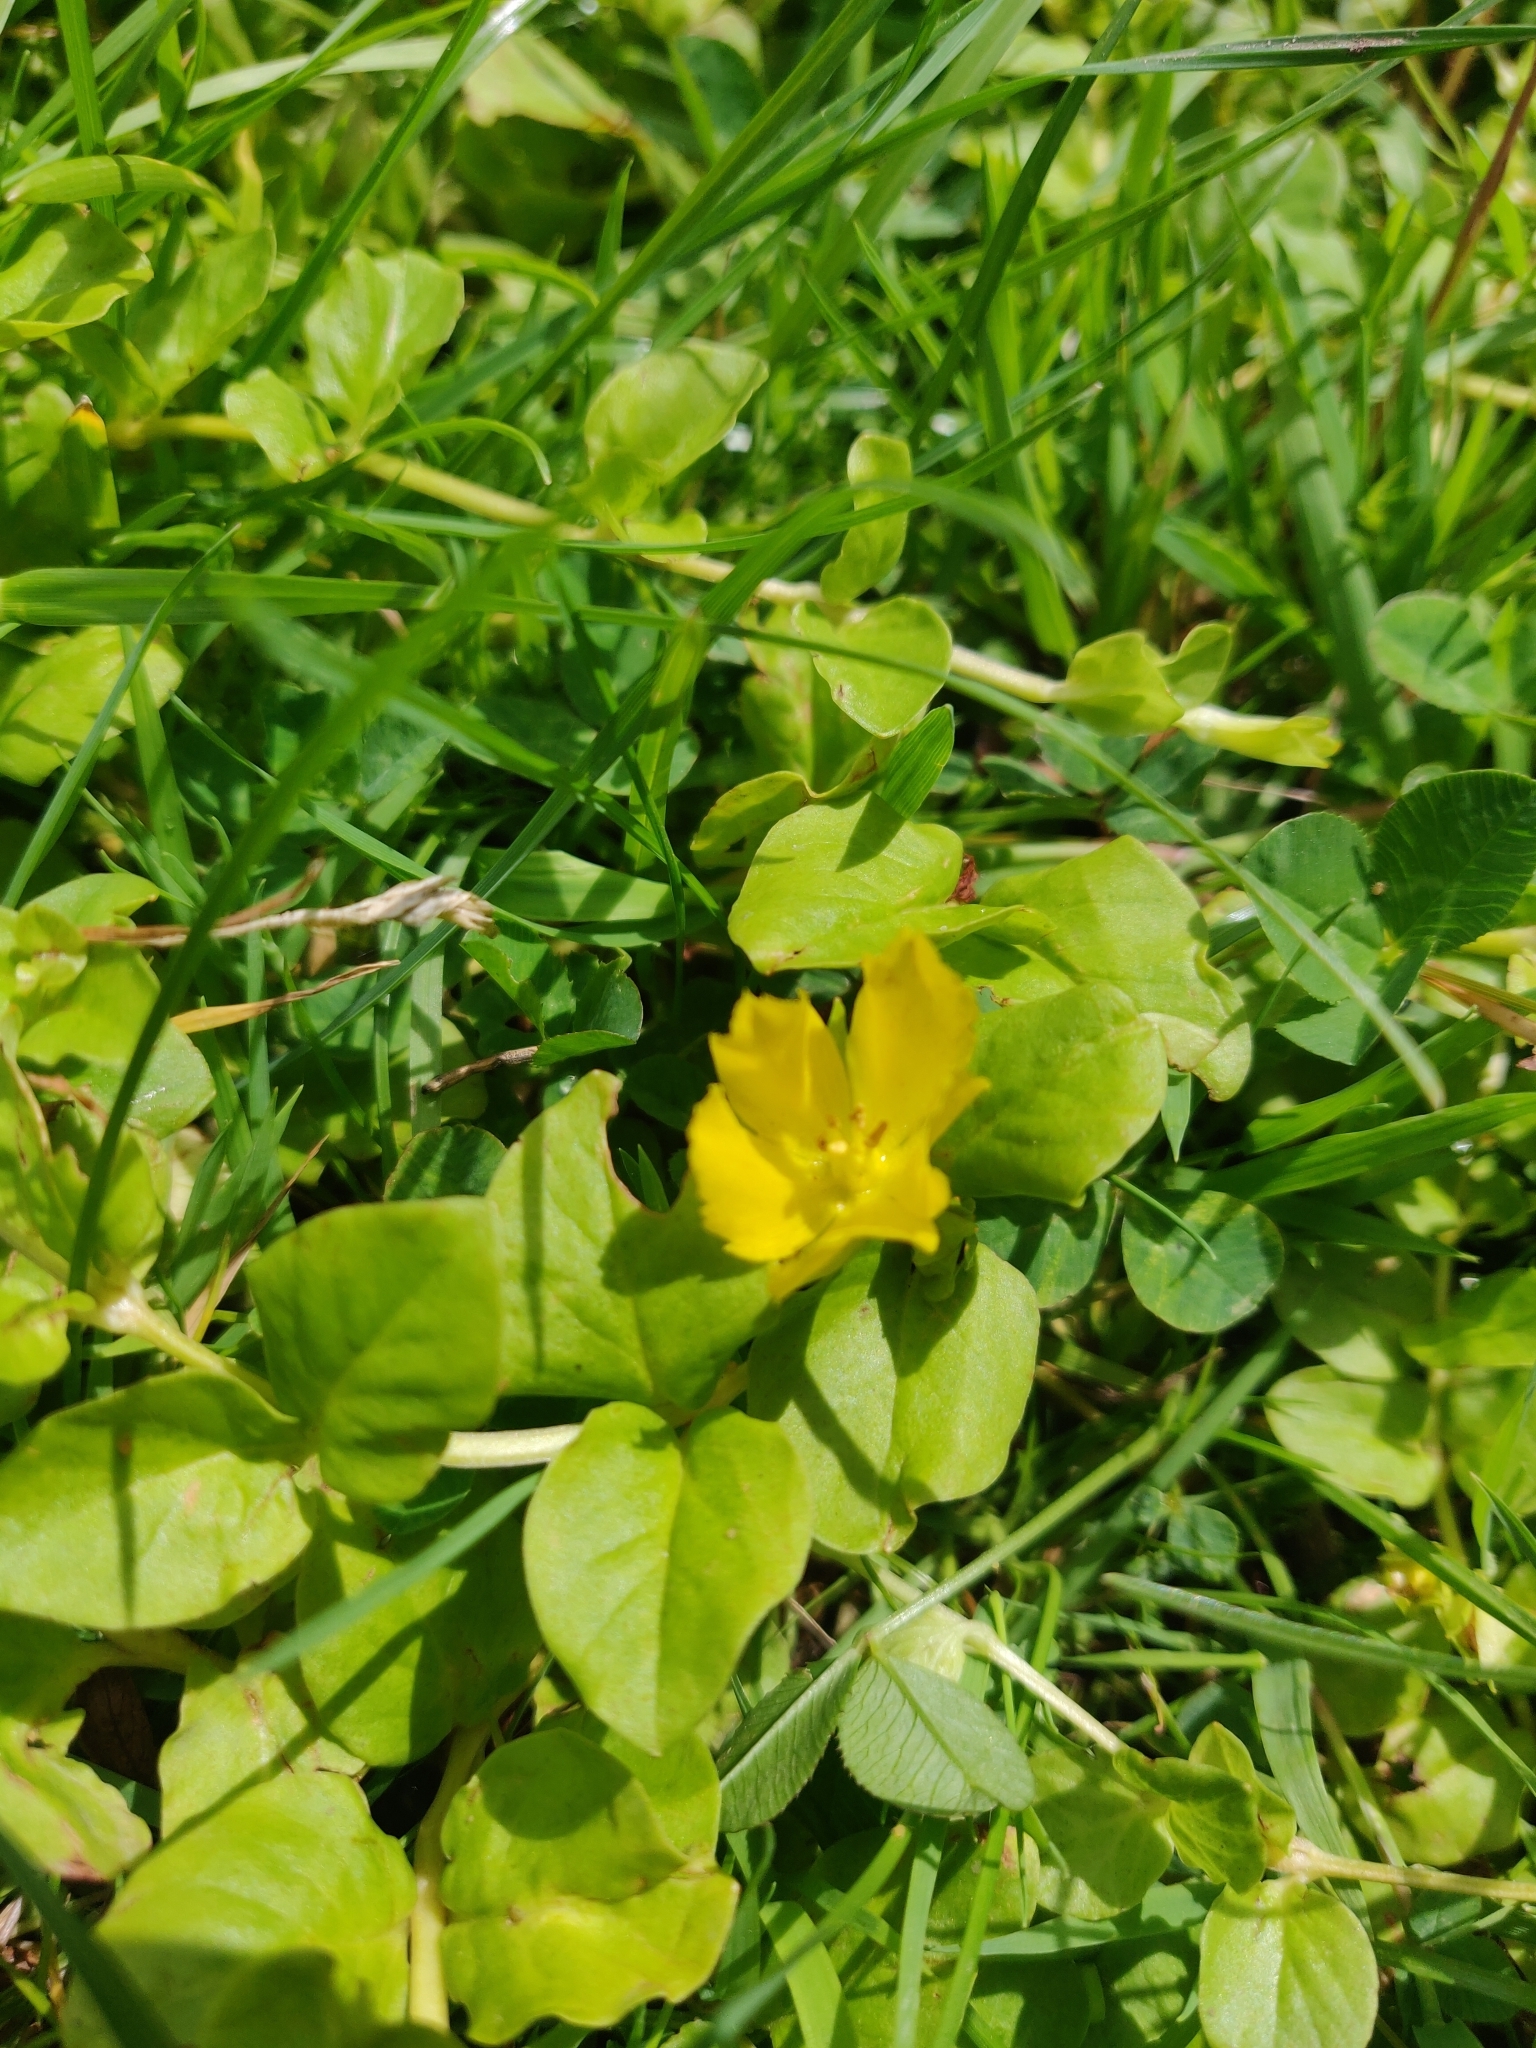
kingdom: Plantae
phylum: Tracheophyta
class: Magnoliopsida
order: Ericales
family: Primulaceae
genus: Lysimachia
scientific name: Lysimachia nummularia
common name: Moneywort
